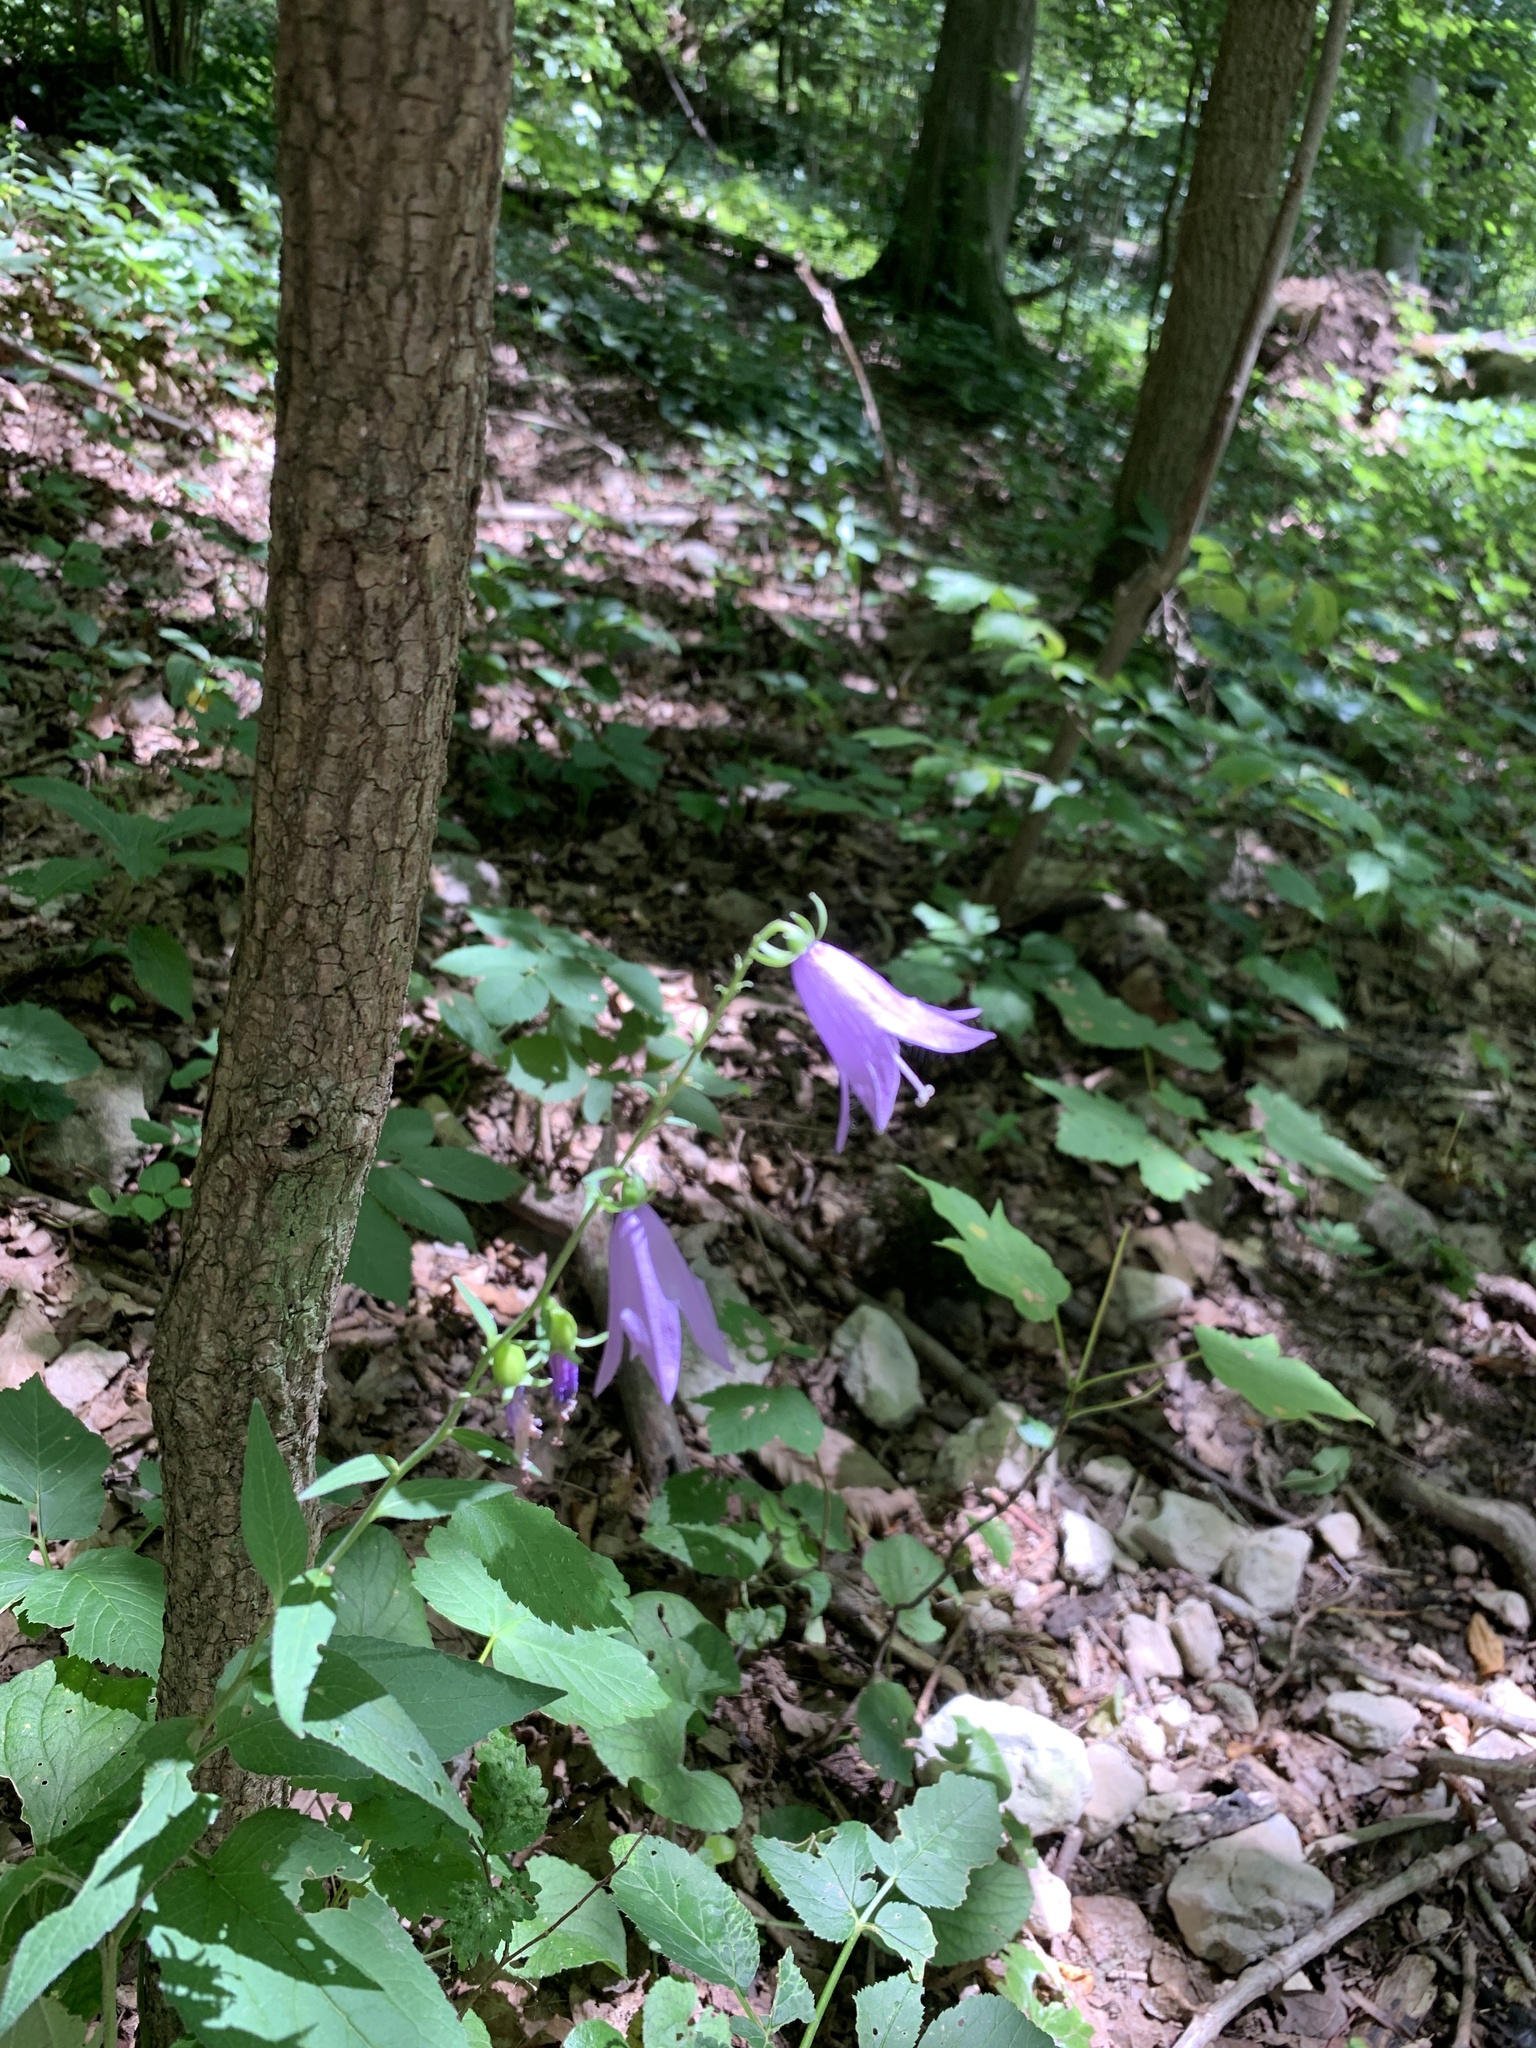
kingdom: Plantae
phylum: Tracheophyta
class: Magnoliopsida
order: Asterales
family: Campanulaceae
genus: Campanula
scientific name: Campanula rapunculoides
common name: Creeping bellflower
